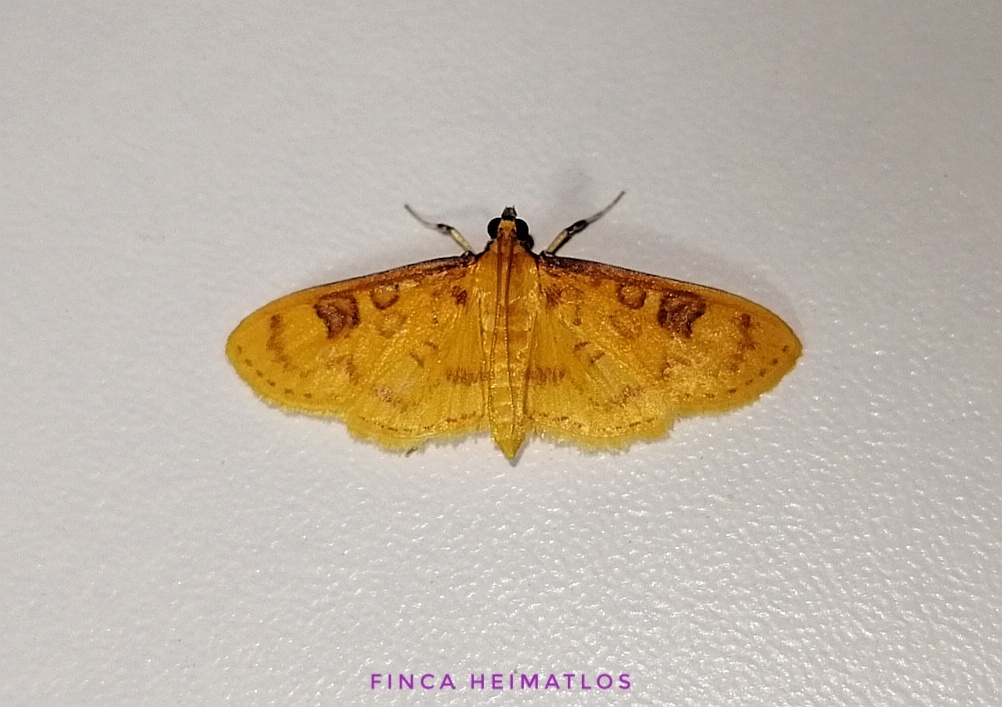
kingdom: Animalia
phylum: Arthropoda
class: Insecta
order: Lepidoptera
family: Crambidae
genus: Trithyris
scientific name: Trithyris
